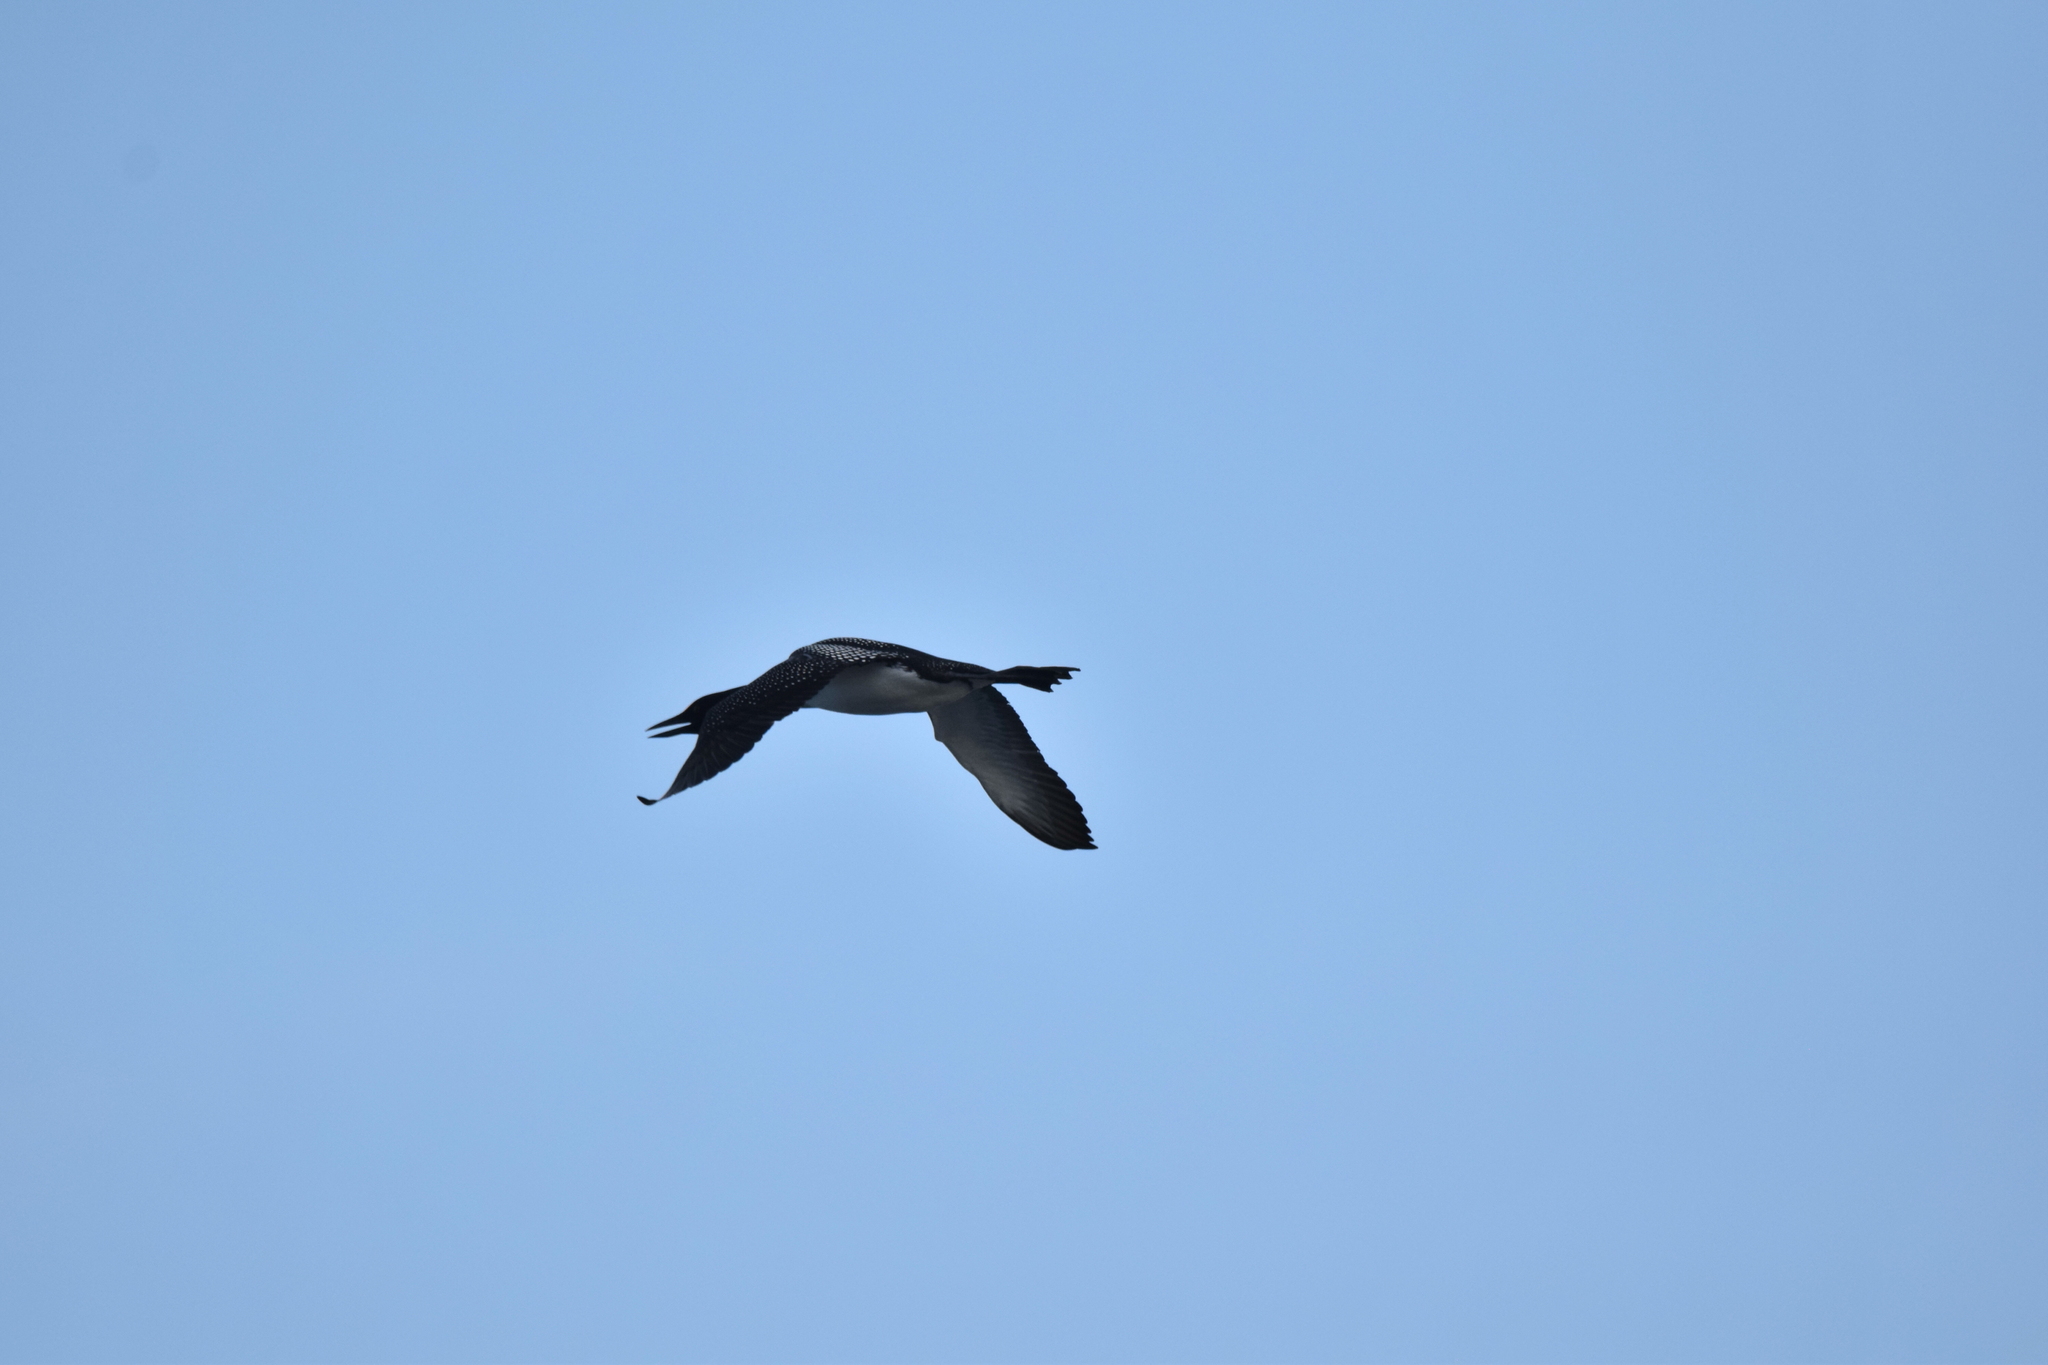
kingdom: Animalia
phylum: Chordata
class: Aves
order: Gaviiformes
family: Gaviidae
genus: Gavia
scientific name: Gavia immer
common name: Common loon
